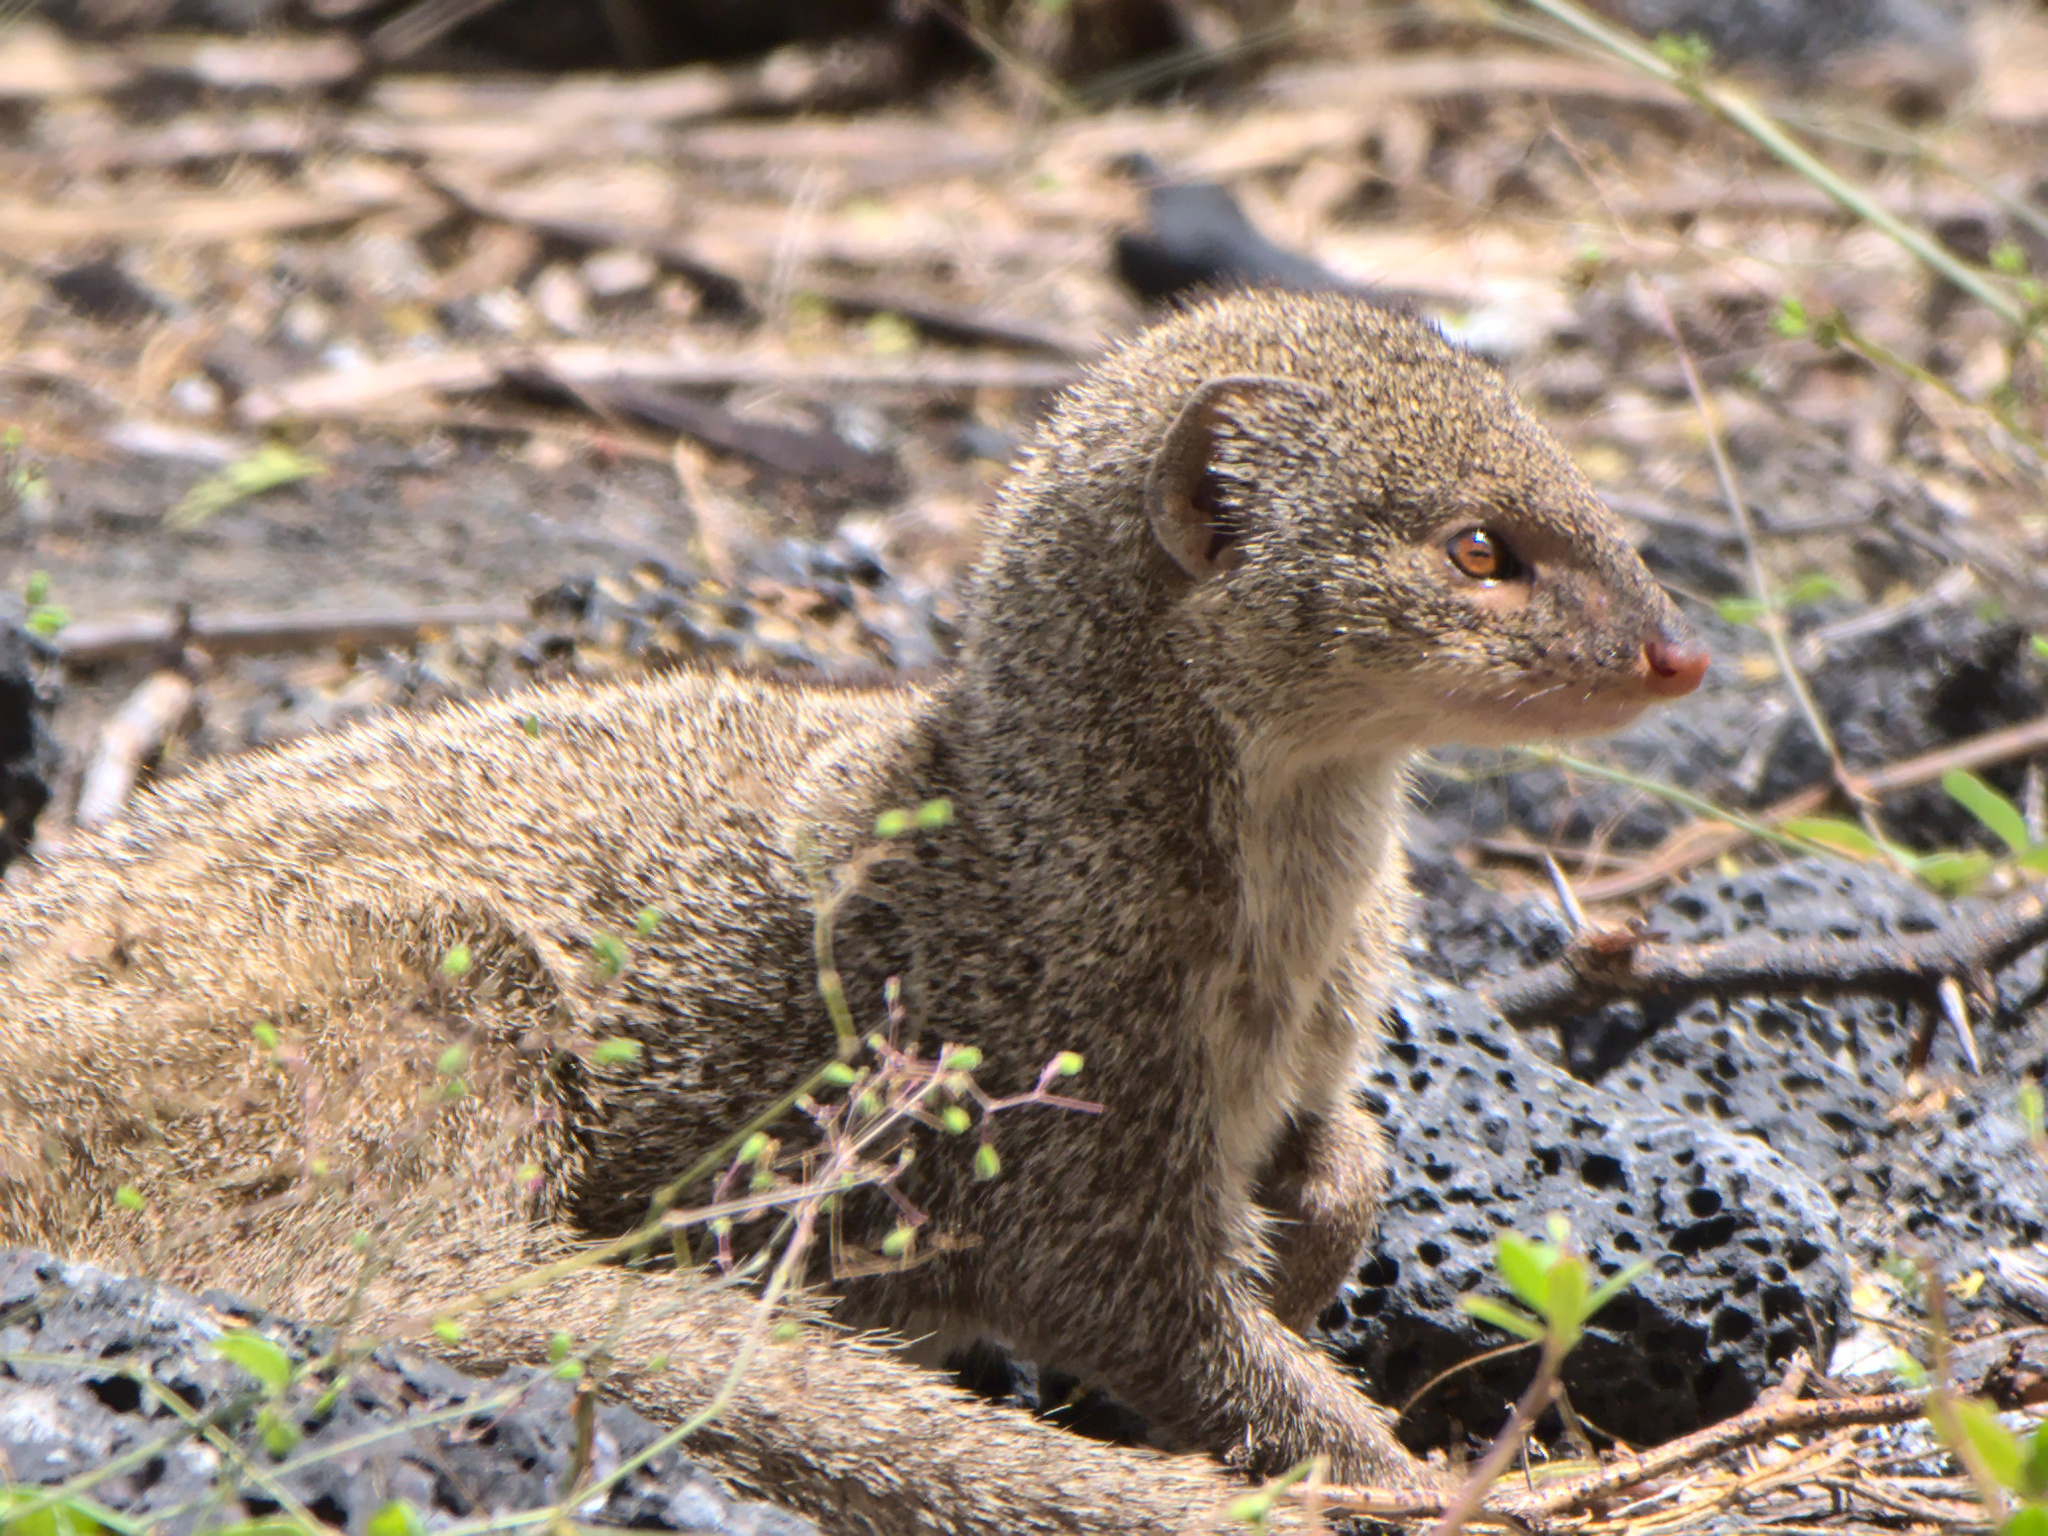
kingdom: Animalia
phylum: Chordata
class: Mammalia
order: Carnivora
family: Herpestidae
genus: Herpestes
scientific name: Herpestes javanicus
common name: Small asian mongoose
